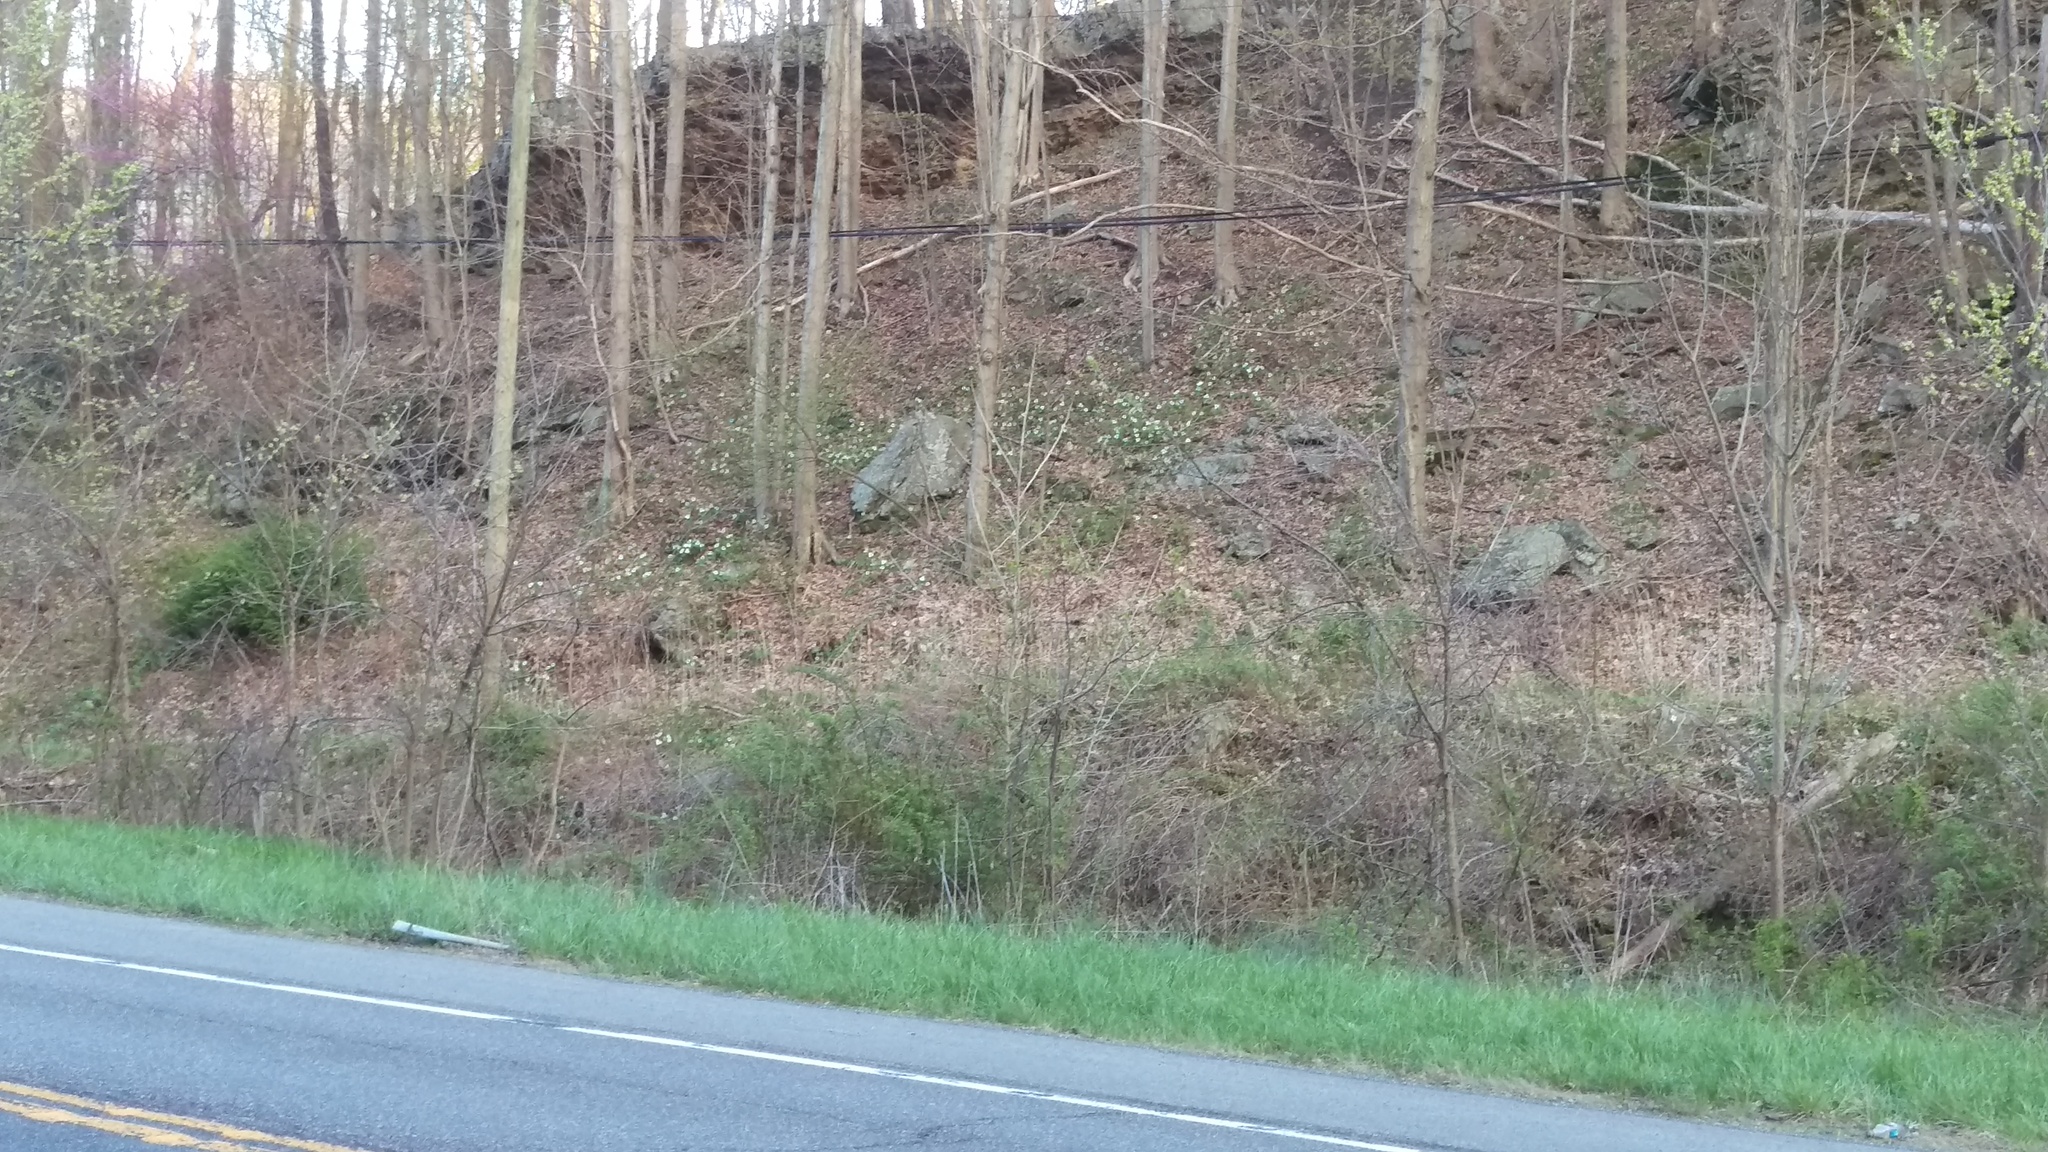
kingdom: Plantae
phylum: Tracheophyta
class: Liliopsida
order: Liliales
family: Melanthiaceae
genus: Trillium
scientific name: Trillium grandiflorum
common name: Great white trillium
